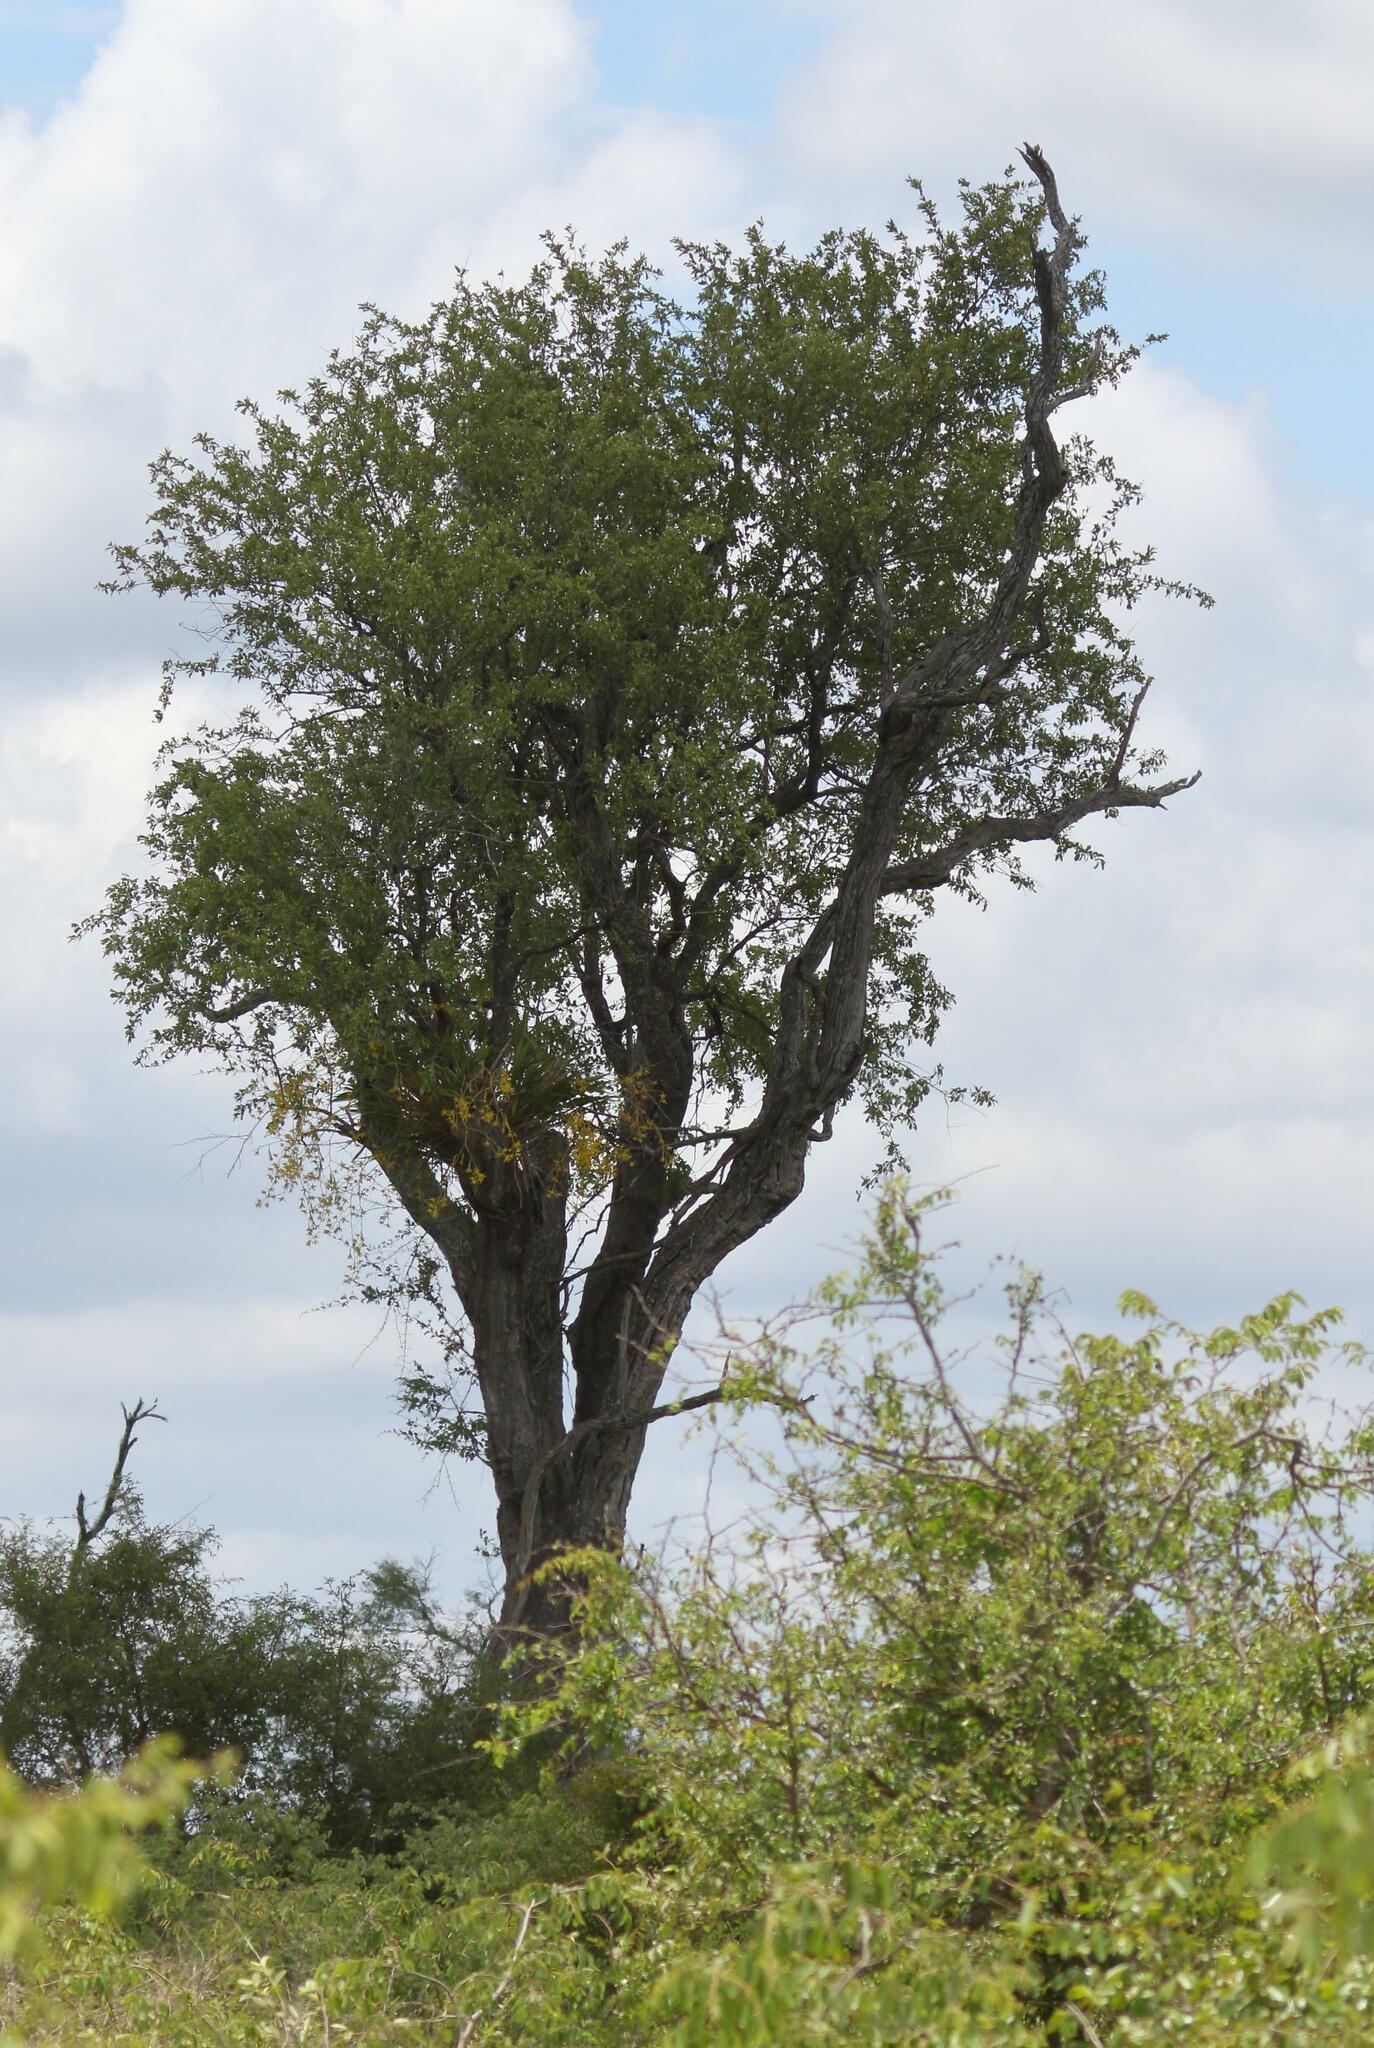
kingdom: Plantae
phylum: Tracheophyta
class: Magnoliopsida
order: Myrtales
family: Combretaceae
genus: Combretum
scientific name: Combretum imberbe
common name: Leadwood
